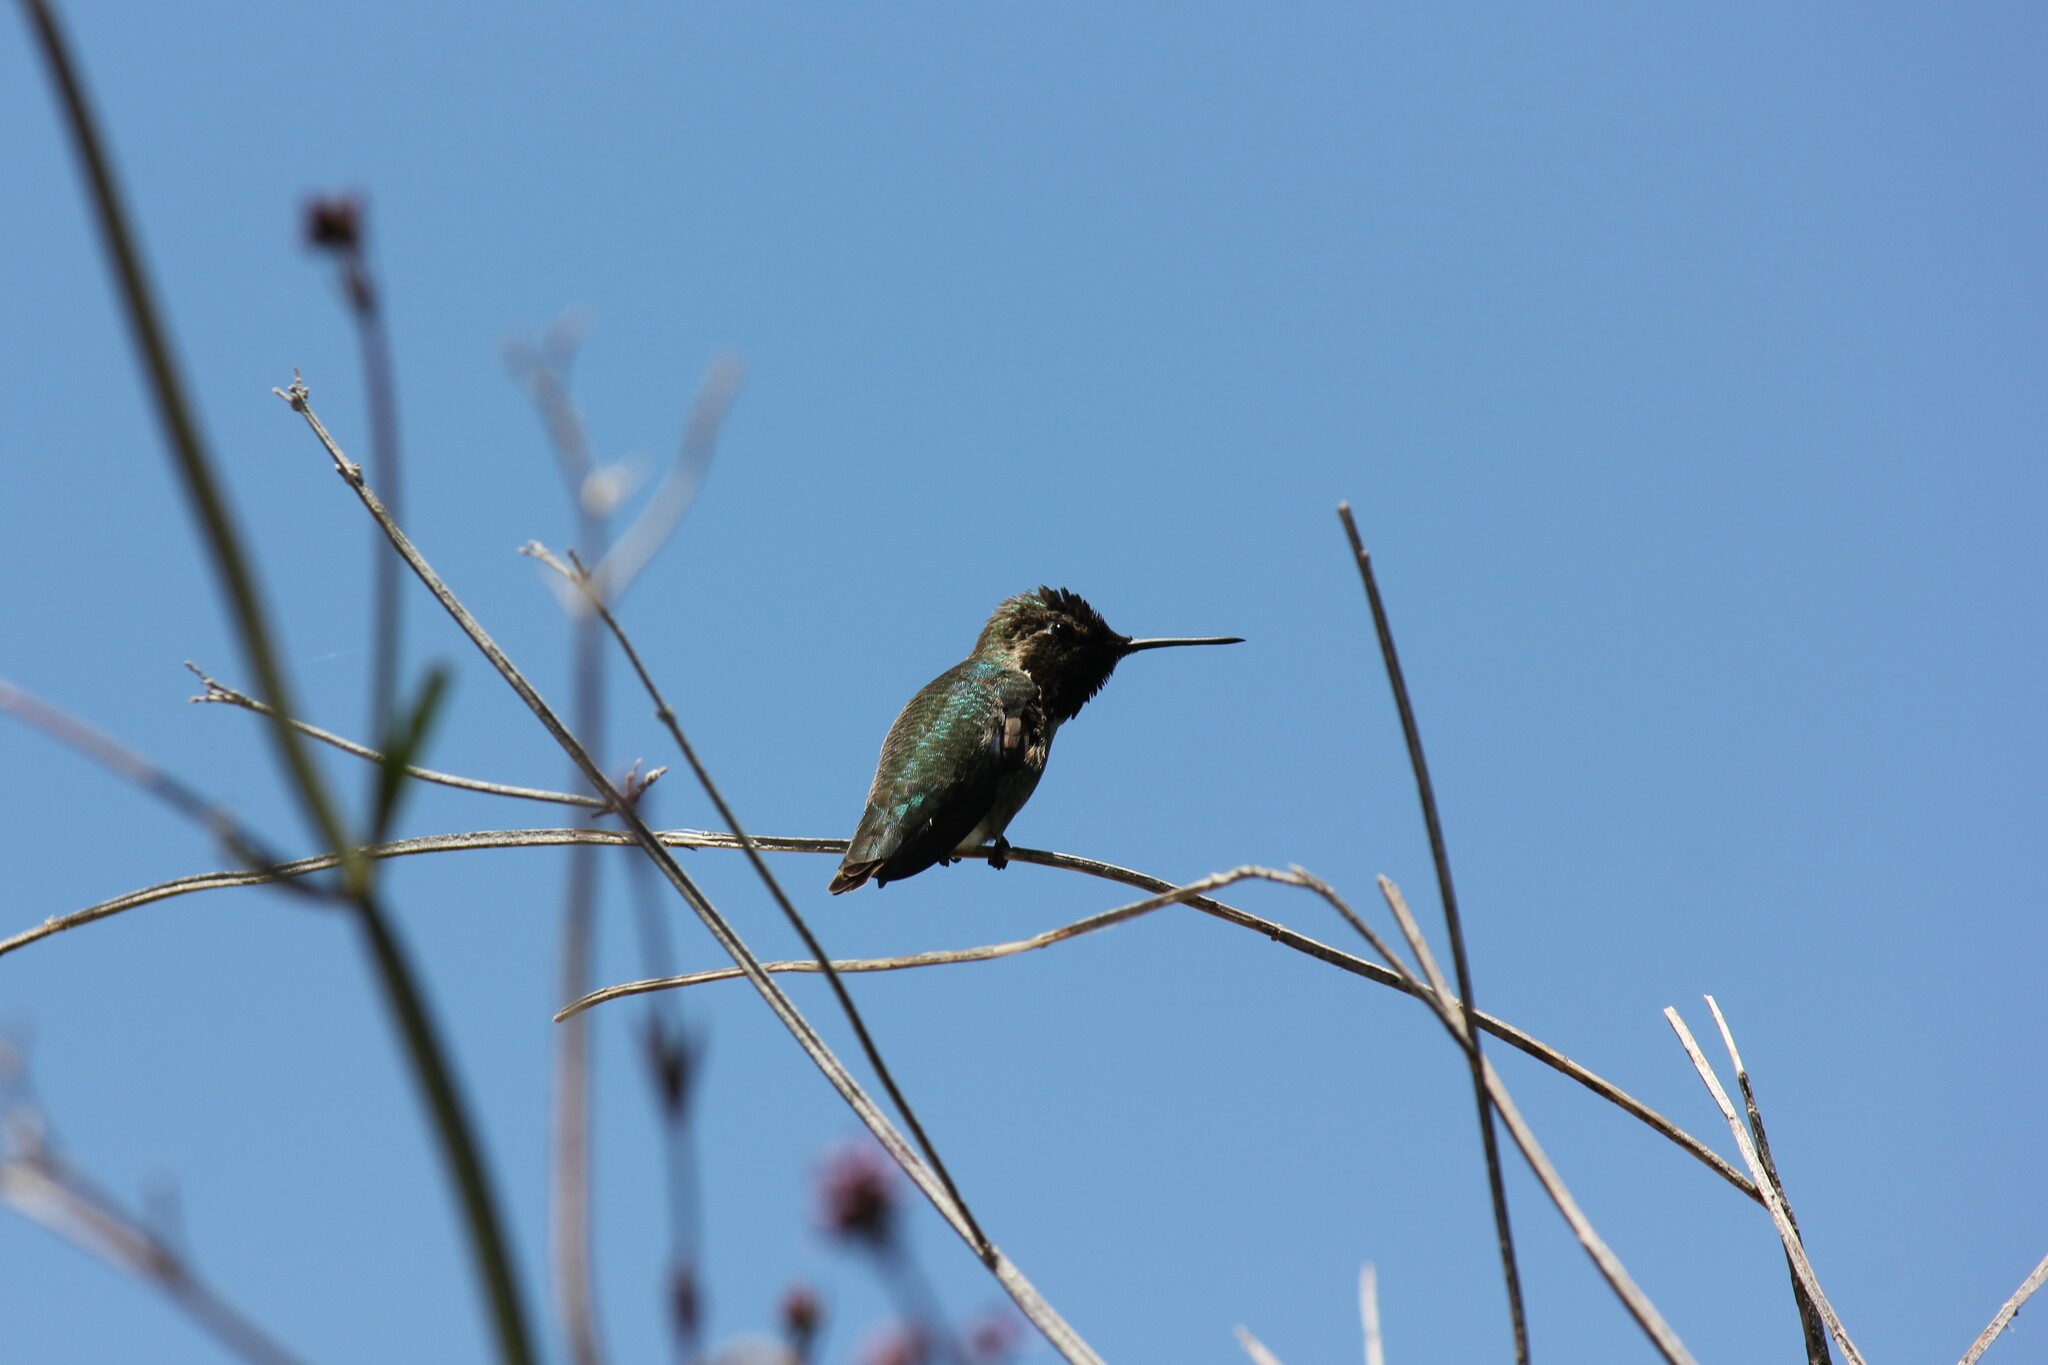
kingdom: Animalia
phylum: Chordata
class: Aves
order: Apodiformes
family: Trochilidae
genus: Calypte
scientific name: Calypte anna
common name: Anna's hummingbird
